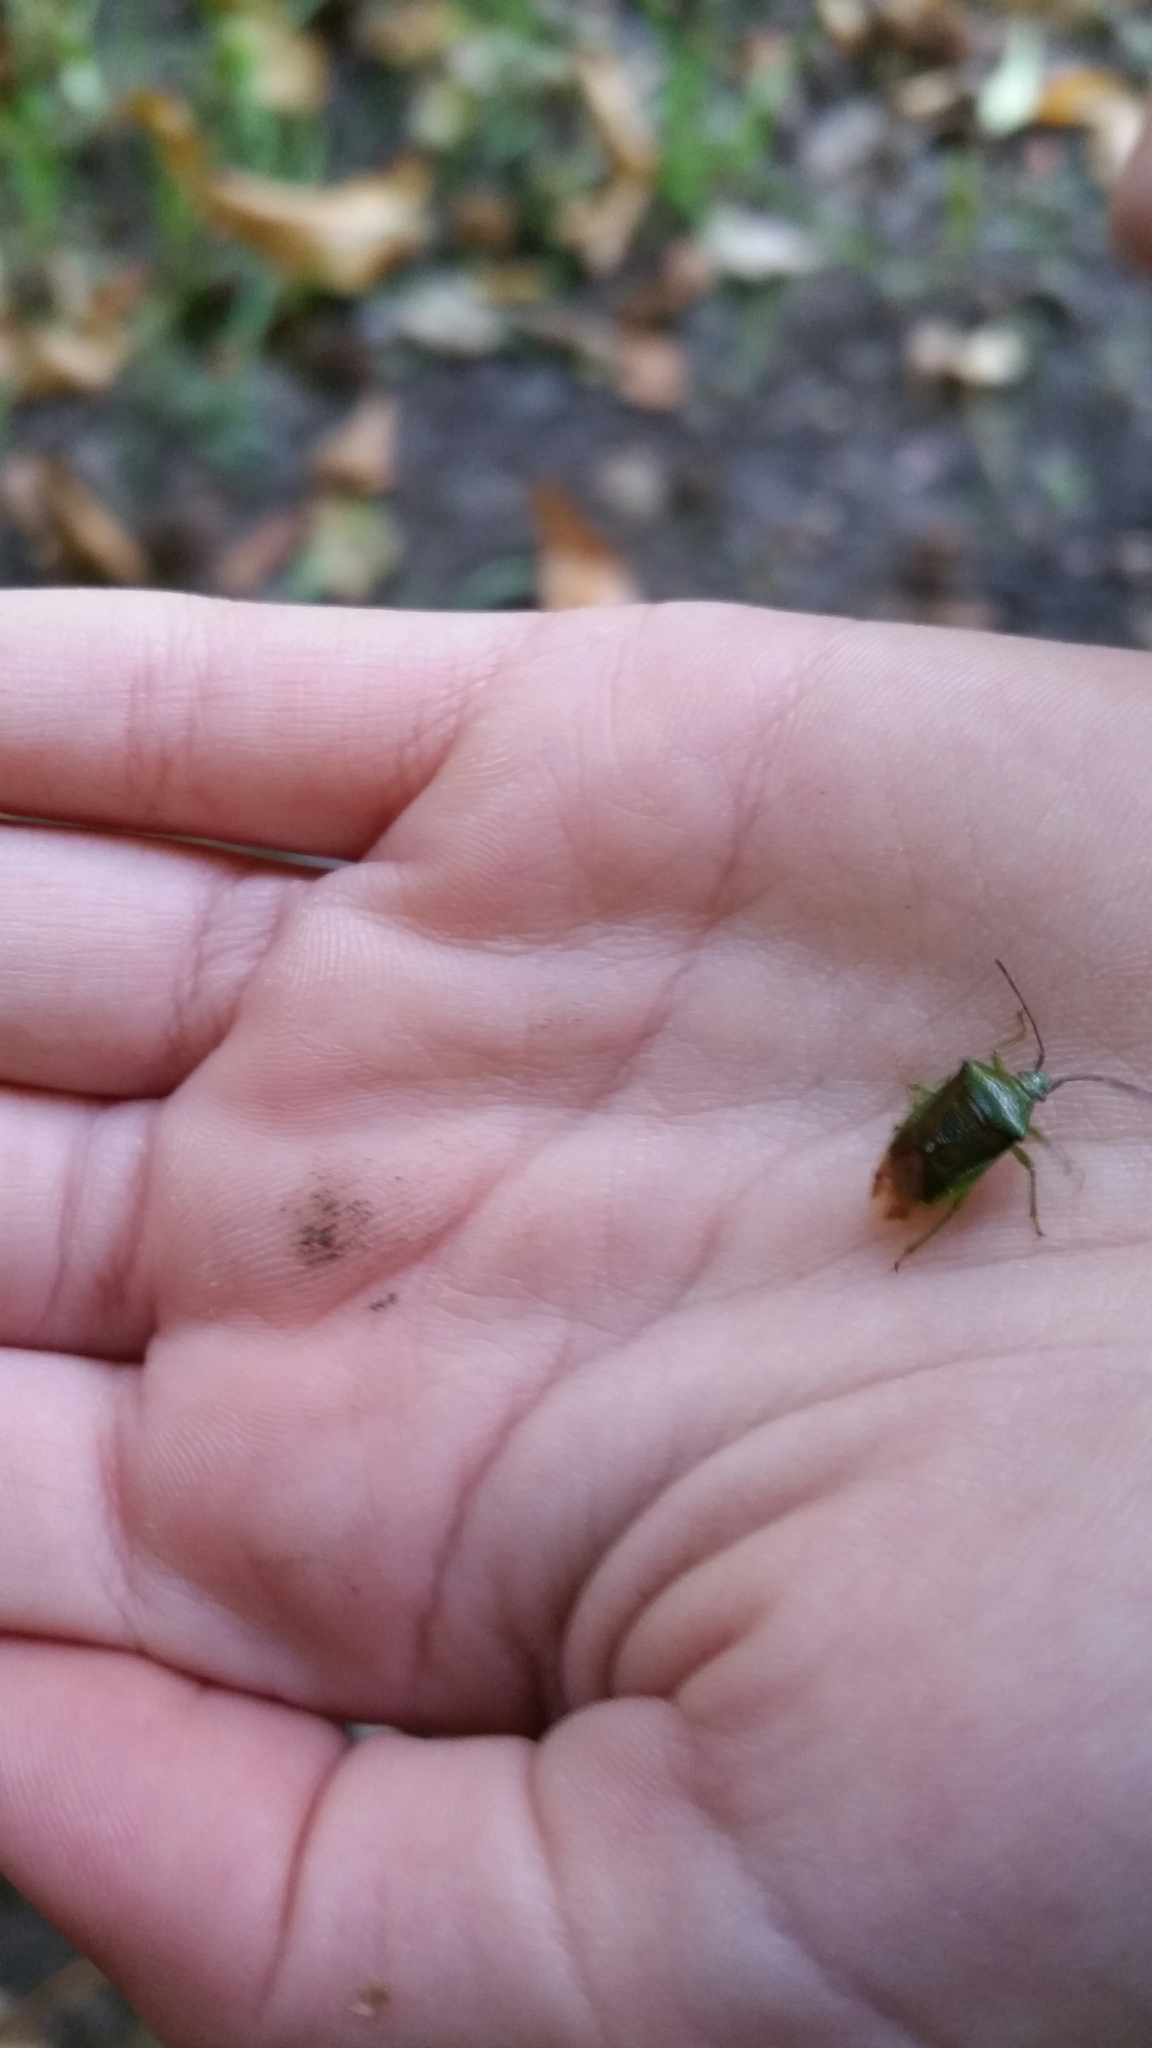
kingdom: Animalia
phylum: Arthropoda
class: Insecta
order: Hemiptera
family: Acanthosomatidae
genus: Elasmostethus
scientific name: Elasmostethus interstinctus
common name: Birch shieldbug
